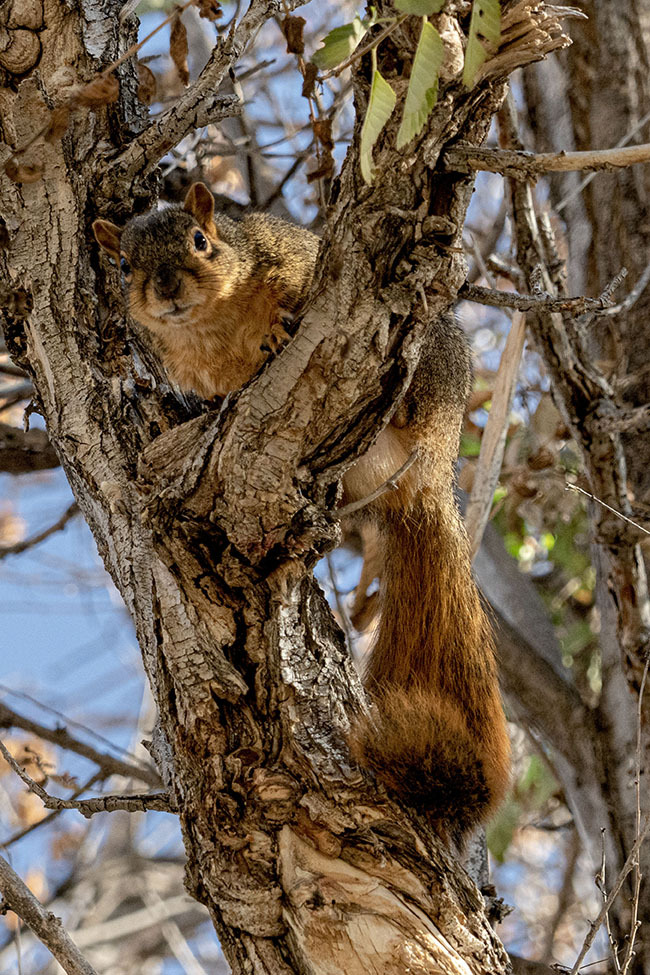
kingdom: Animalia
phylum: Chordata
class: Mammalia
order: Rodentia
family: Sciuridae
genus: Sciurus
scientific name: Sciurus niger
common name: Fox squirrel
